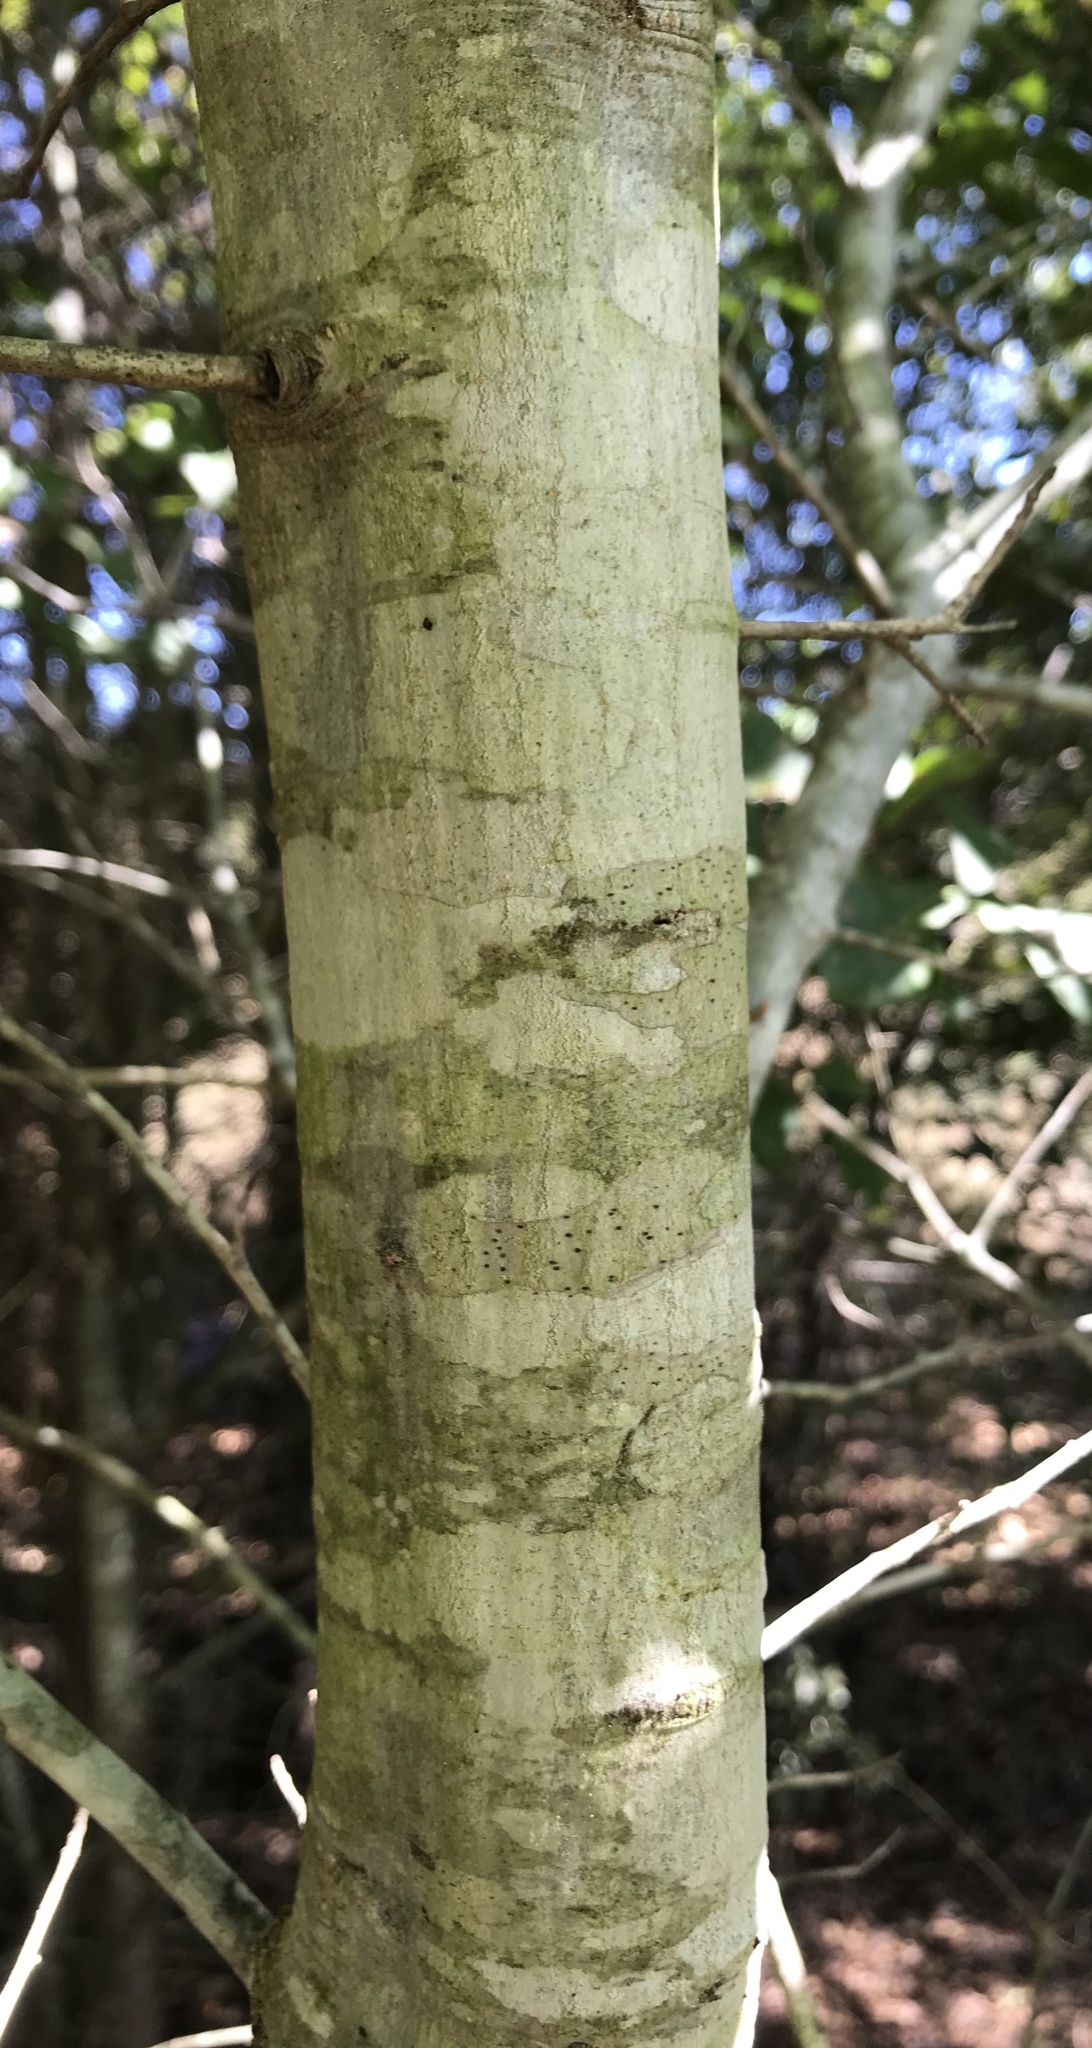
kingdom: Plantae
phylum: Tracheophyta
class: Magnoliopsida
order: Fagales
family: Fagaceae
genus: Quercus
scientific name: Quercus nigra
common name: Water oak
